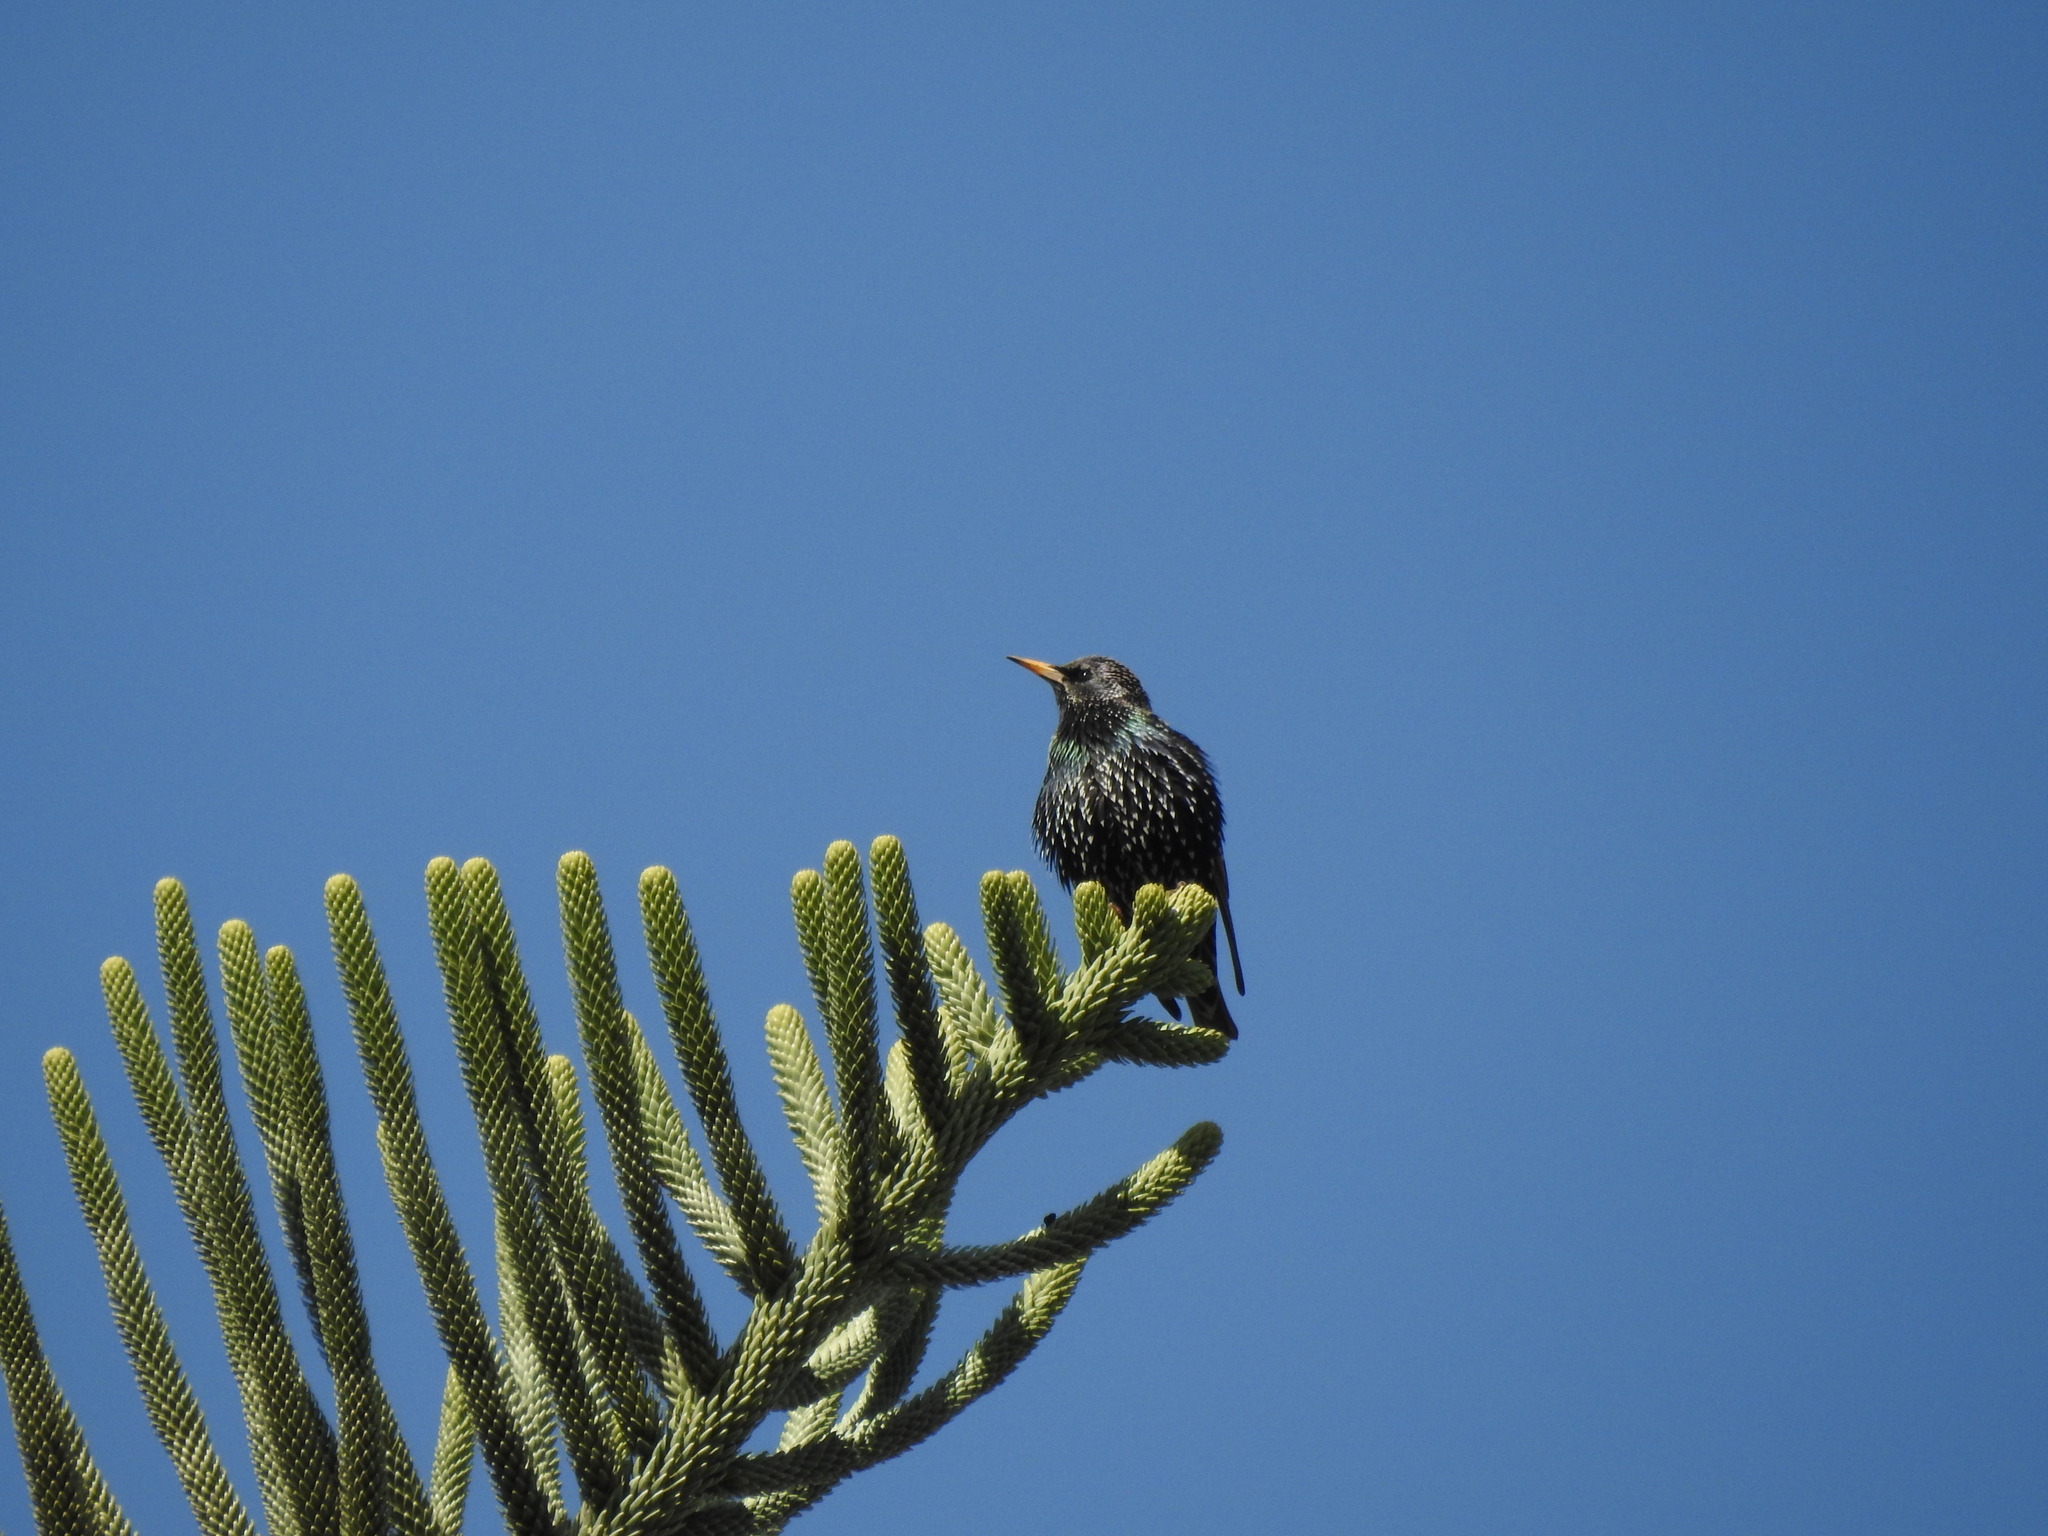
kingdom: Animalia
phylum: Chordata
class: Aves
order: Passeriformes
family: Sturnidae
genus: Sturnus
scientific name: Sturnus vulgaris
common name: Common starling
